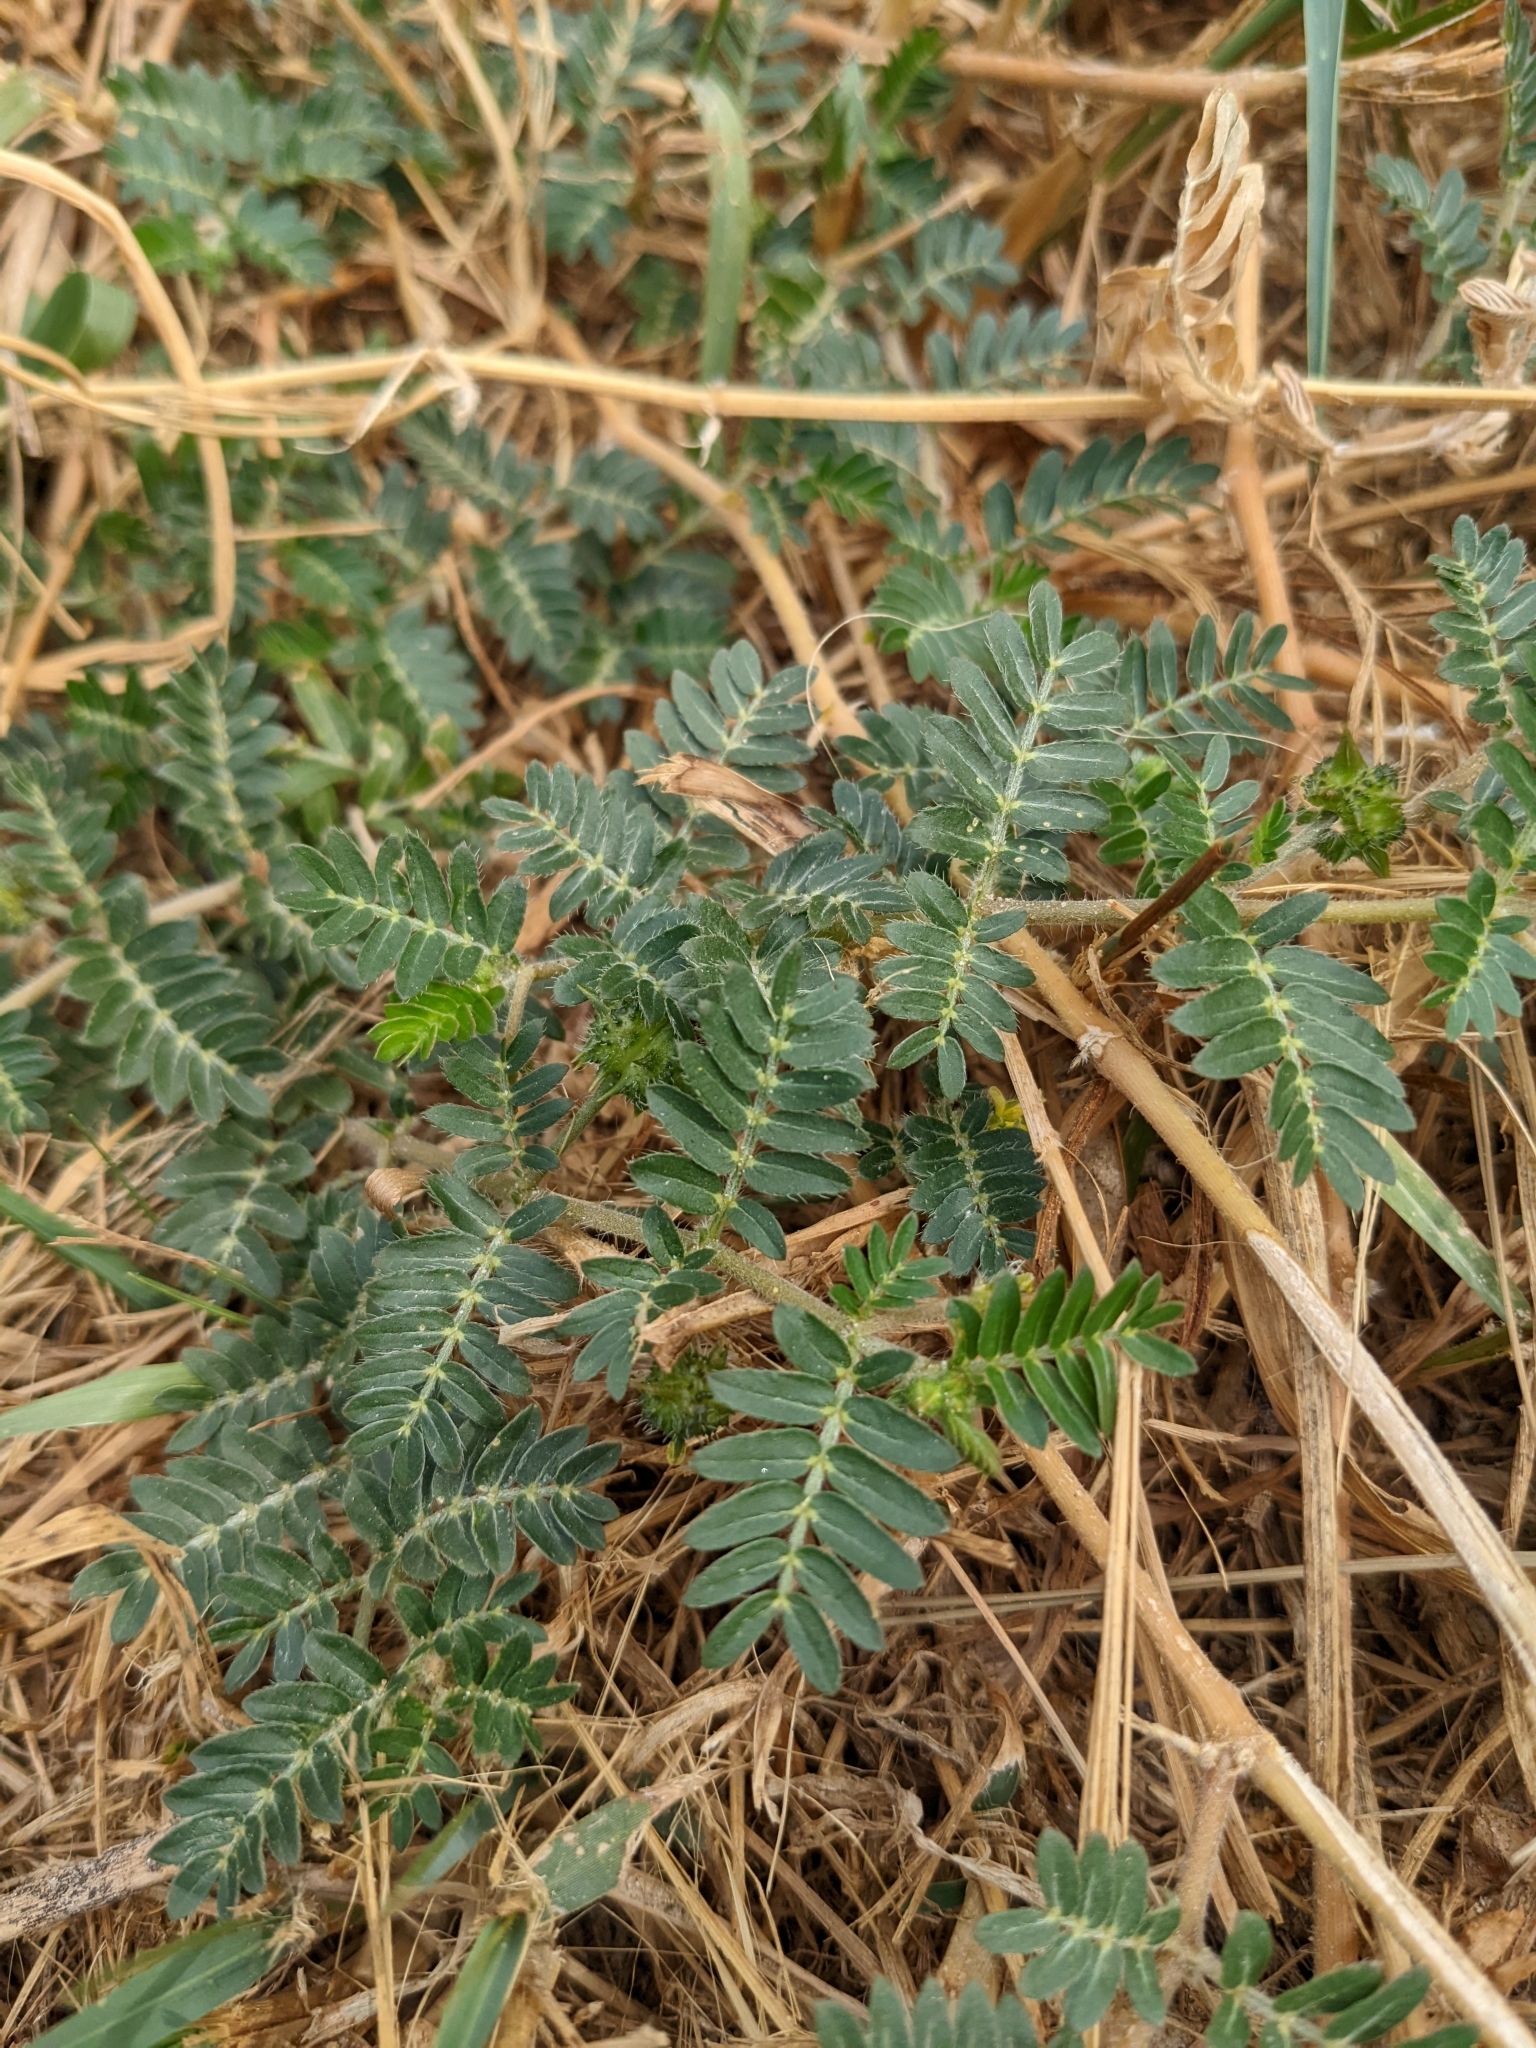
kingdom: Plantae
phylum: Tracheophyta
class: Magnoliopsida
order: Zygophyllales
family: Zygophyllaceae
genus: Tribulus
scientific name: Tribulus terrestris
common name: Puncturevine
